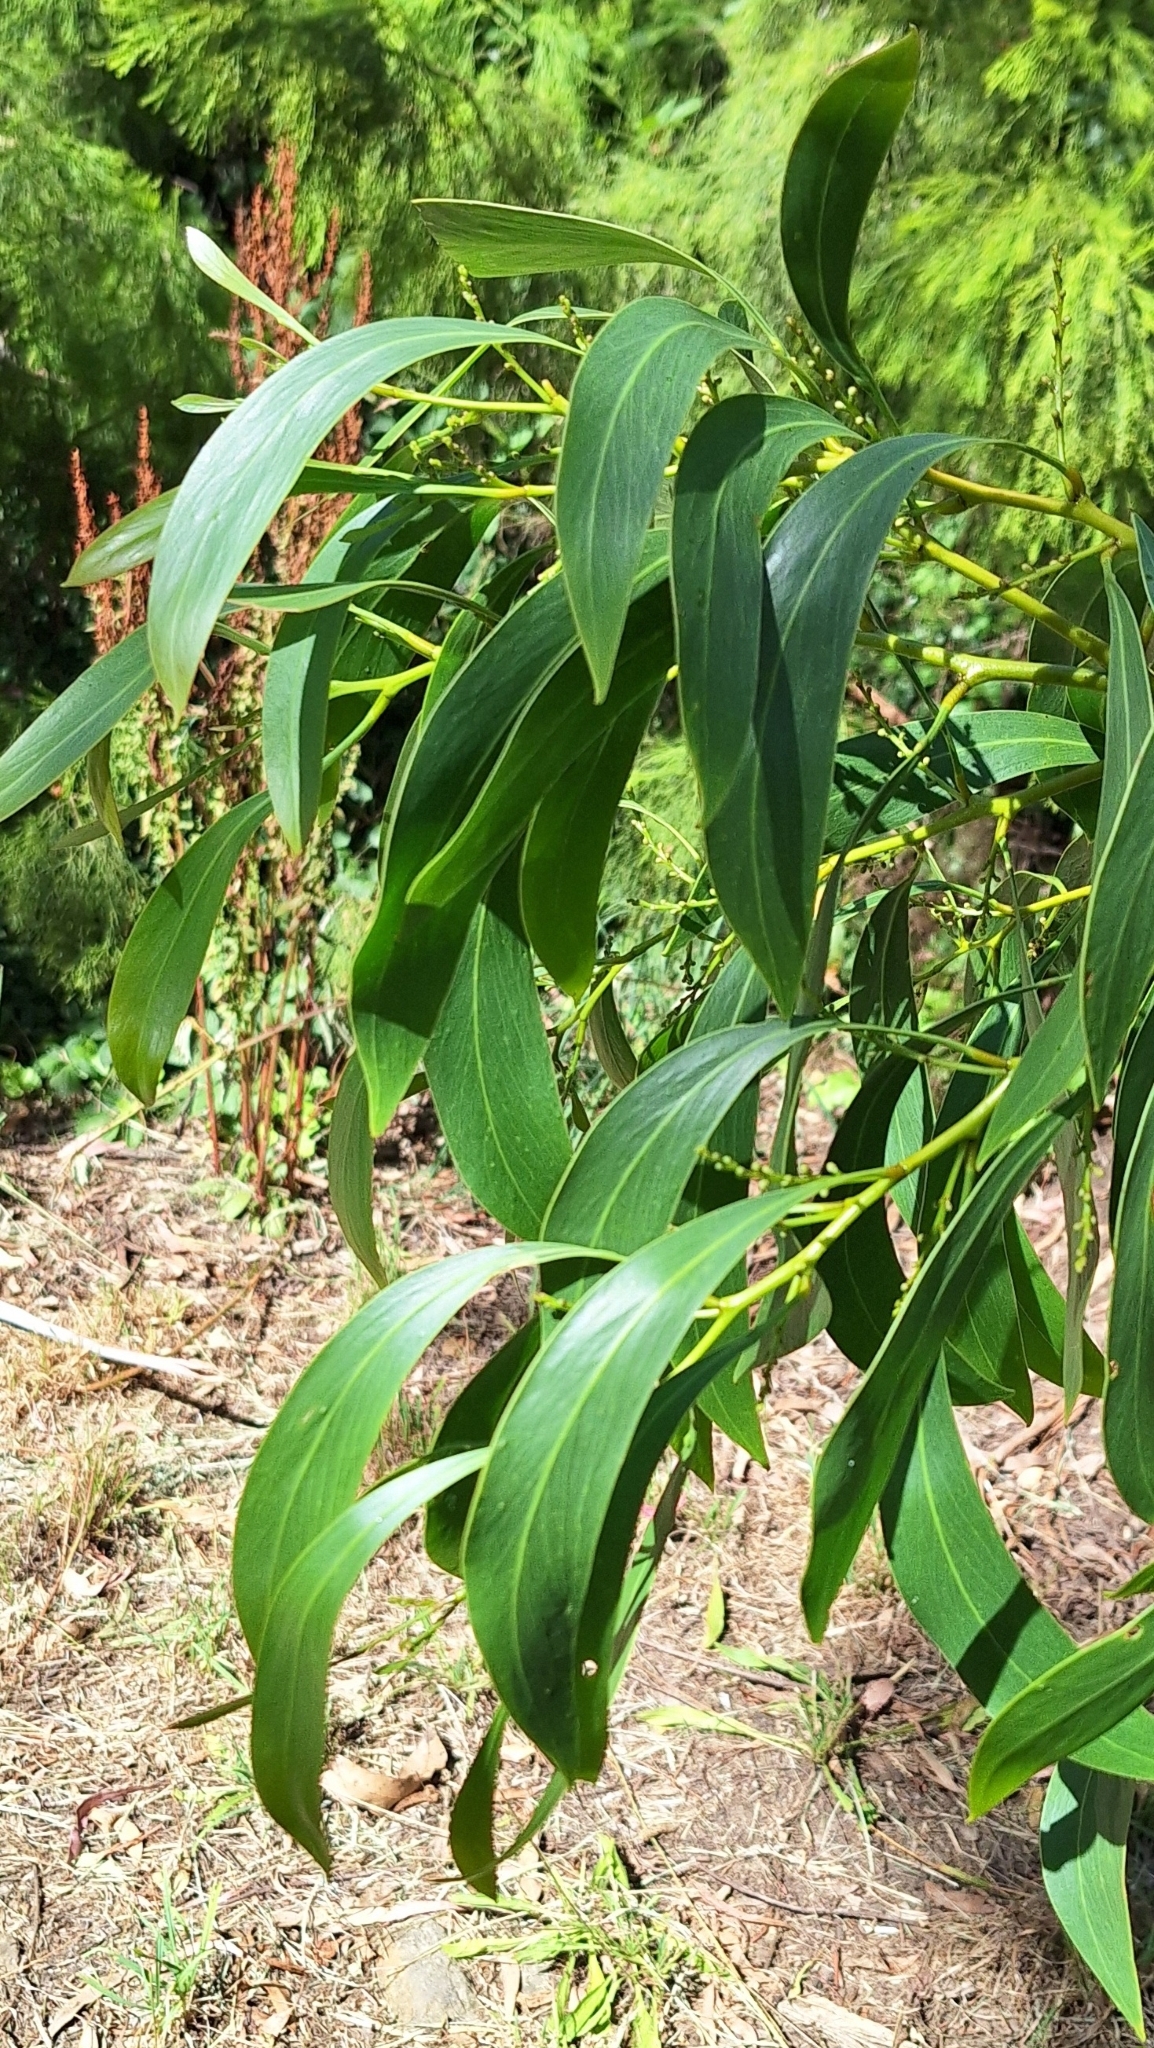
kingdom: Plantae
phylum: Tracheophyta
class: Magnoliopsida
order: Fabales
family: Fabaceae
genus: Acacia
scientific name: Acacia pycnantha
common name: Golden wattle
